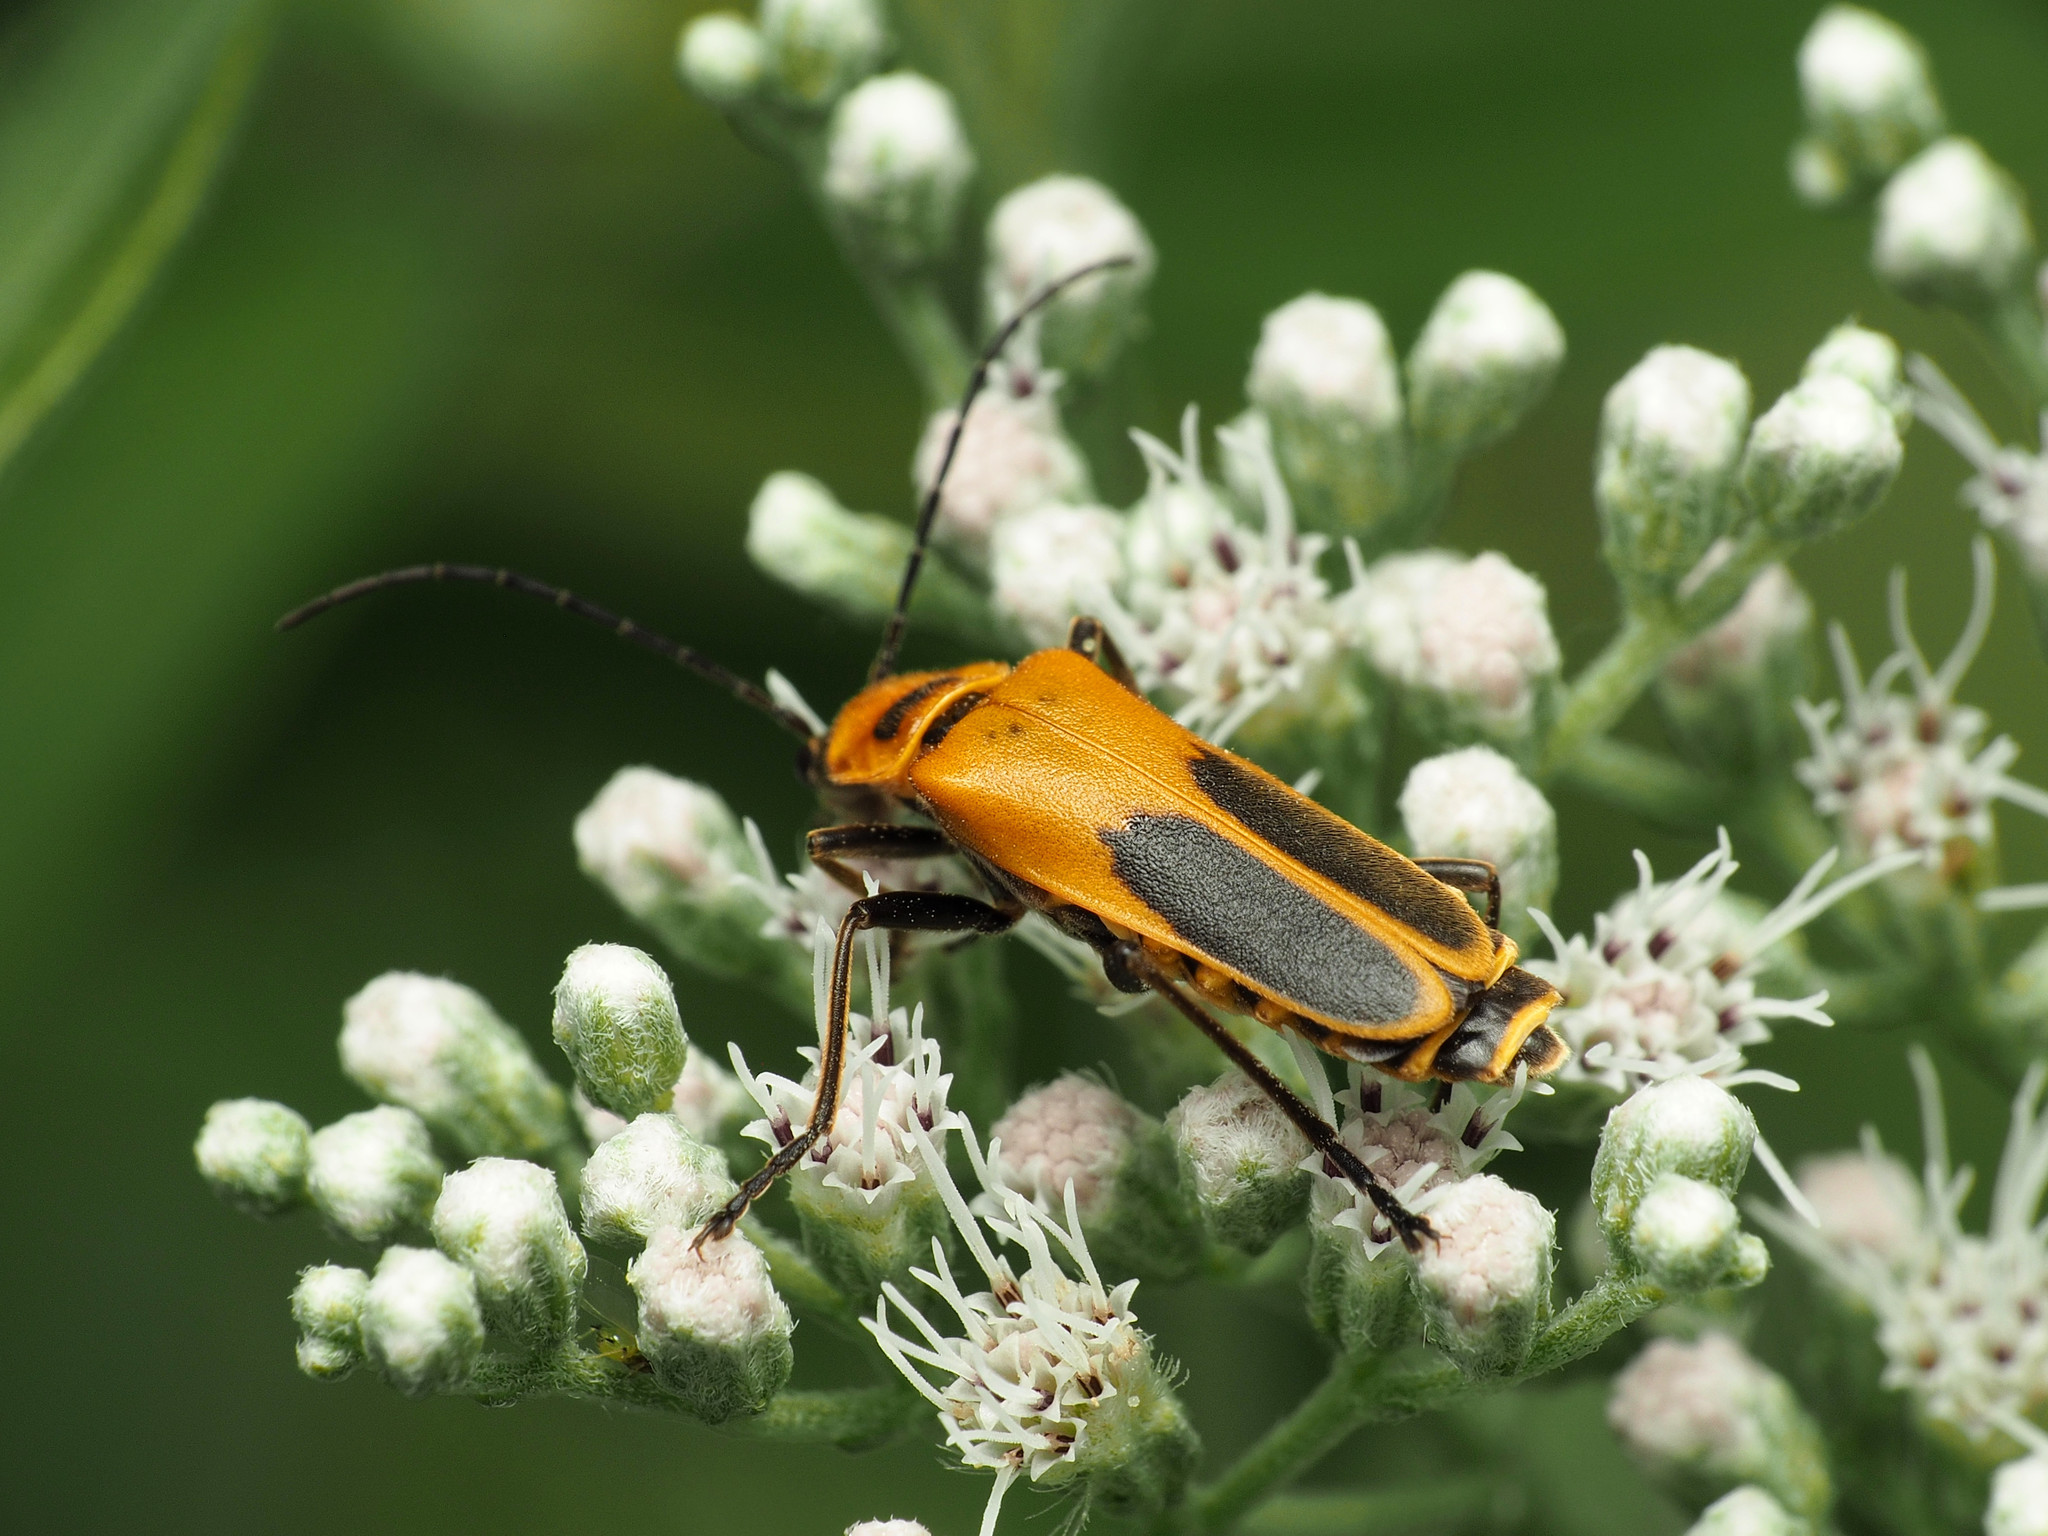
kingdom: Animalia
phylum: Arthropoda
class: Insecta
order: Coleoptera
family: Cantharidae
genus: Chauliognathus
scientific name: Chauliognathus pensylvanicus
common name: Goldenrod soldier beetle
